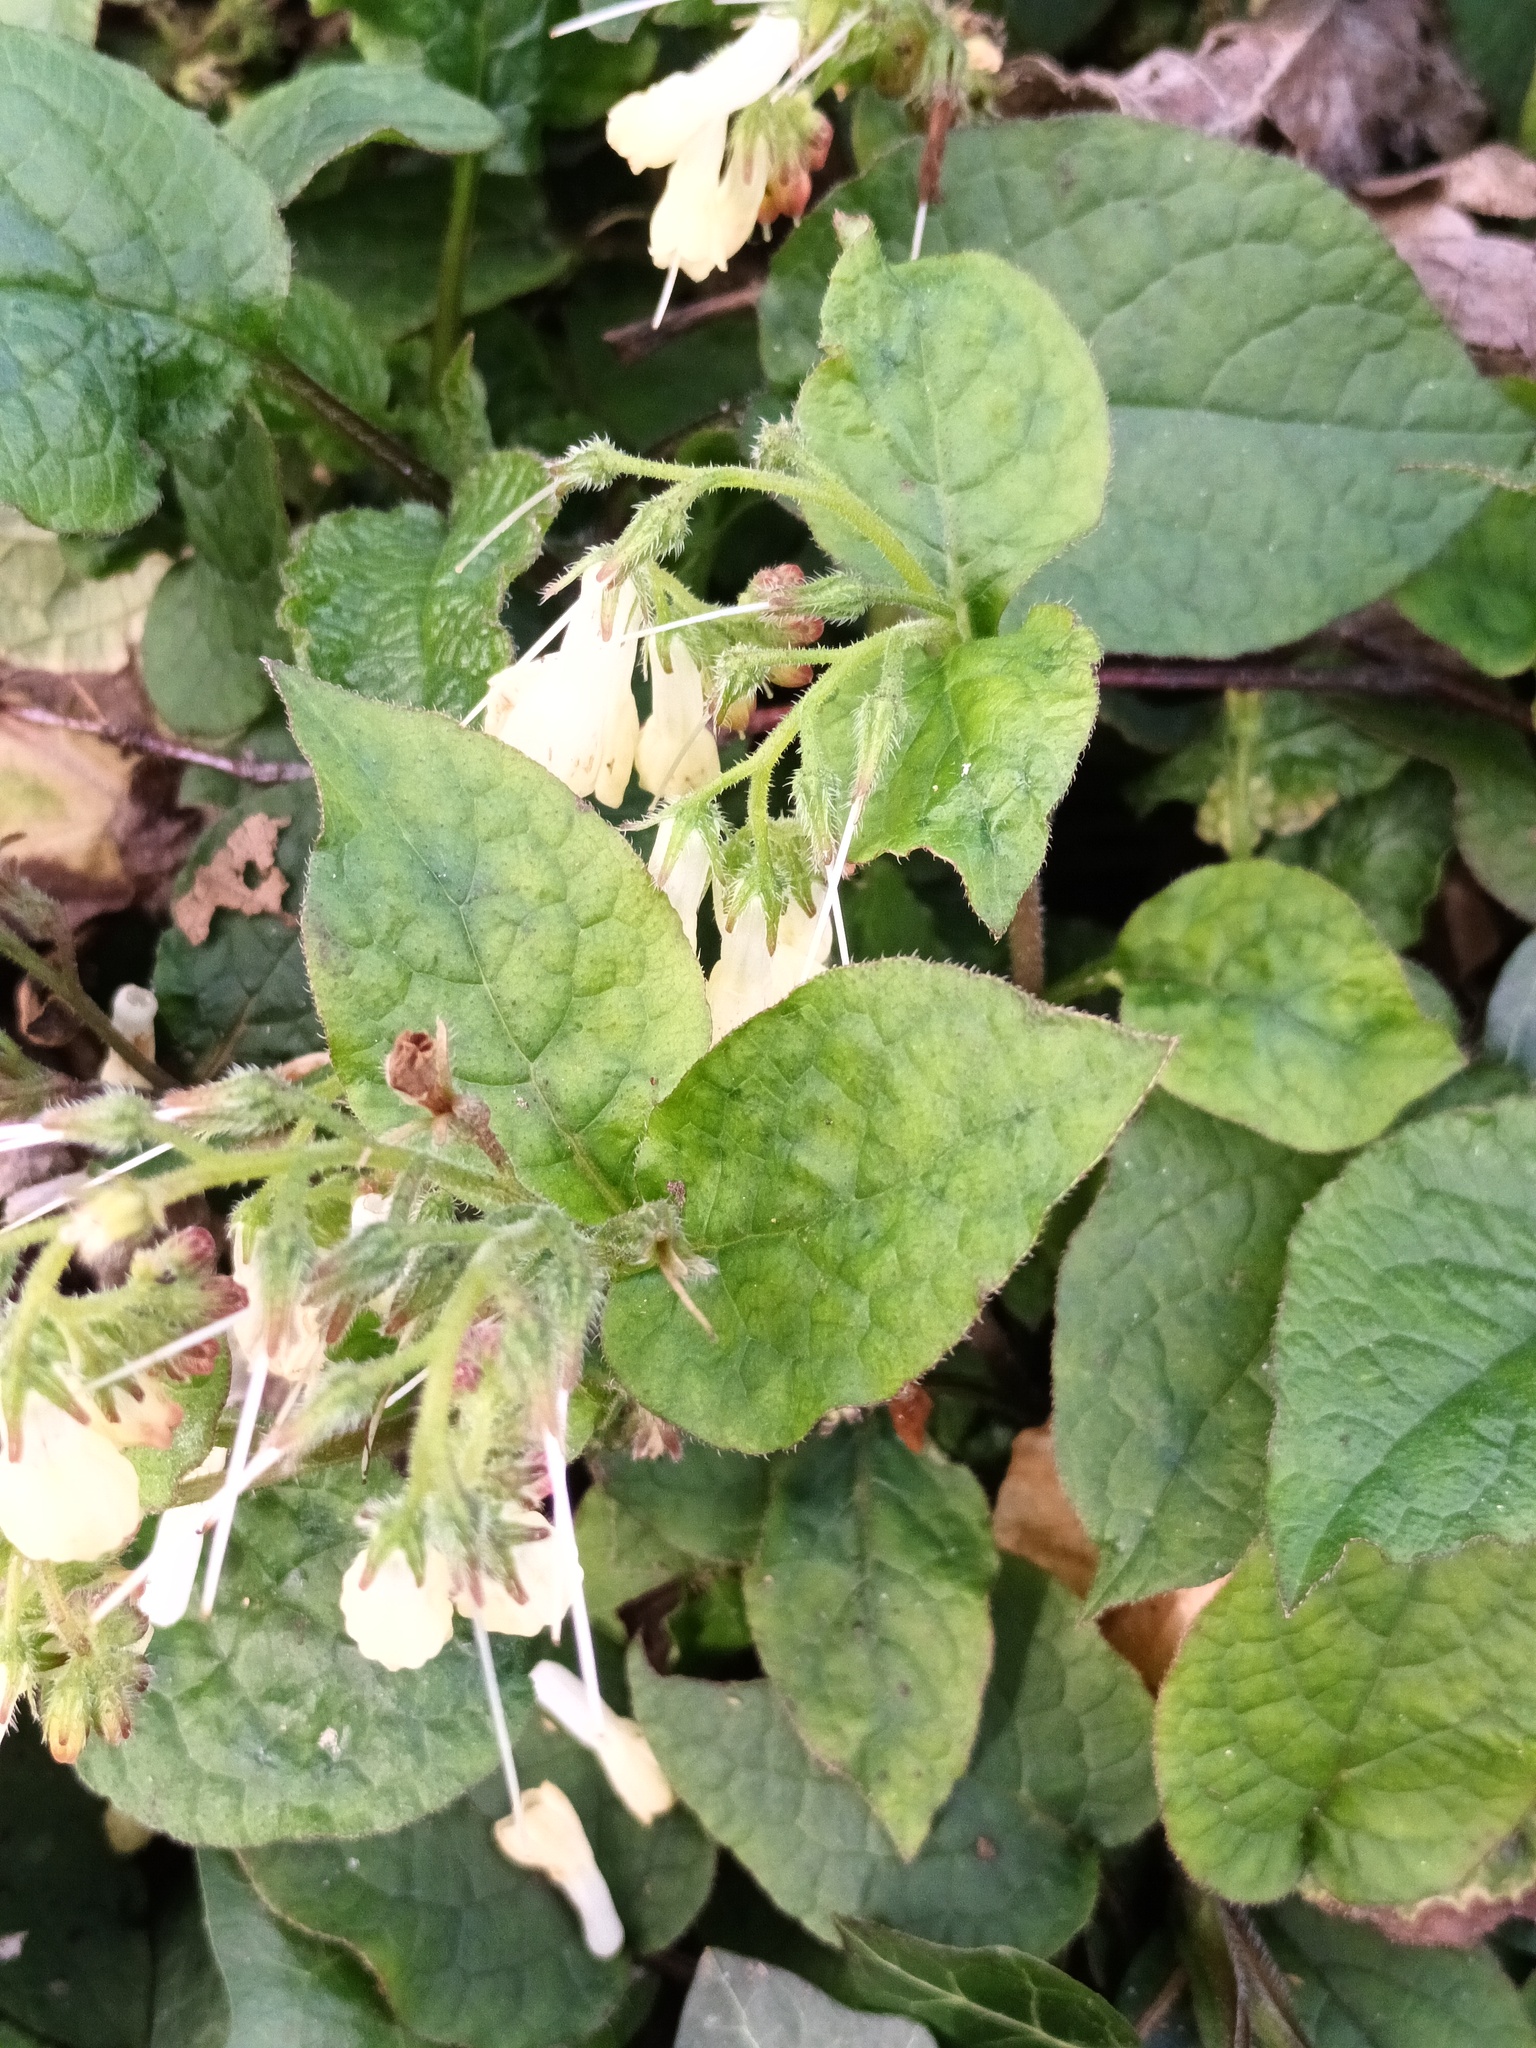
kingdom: Plantae
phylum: Tracheophyta
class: Magnoliopsida
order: Boraginales
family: Boraginaceae
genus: Symphytum
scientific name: Symphytum grandiflorum
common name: Creeping comfrey
